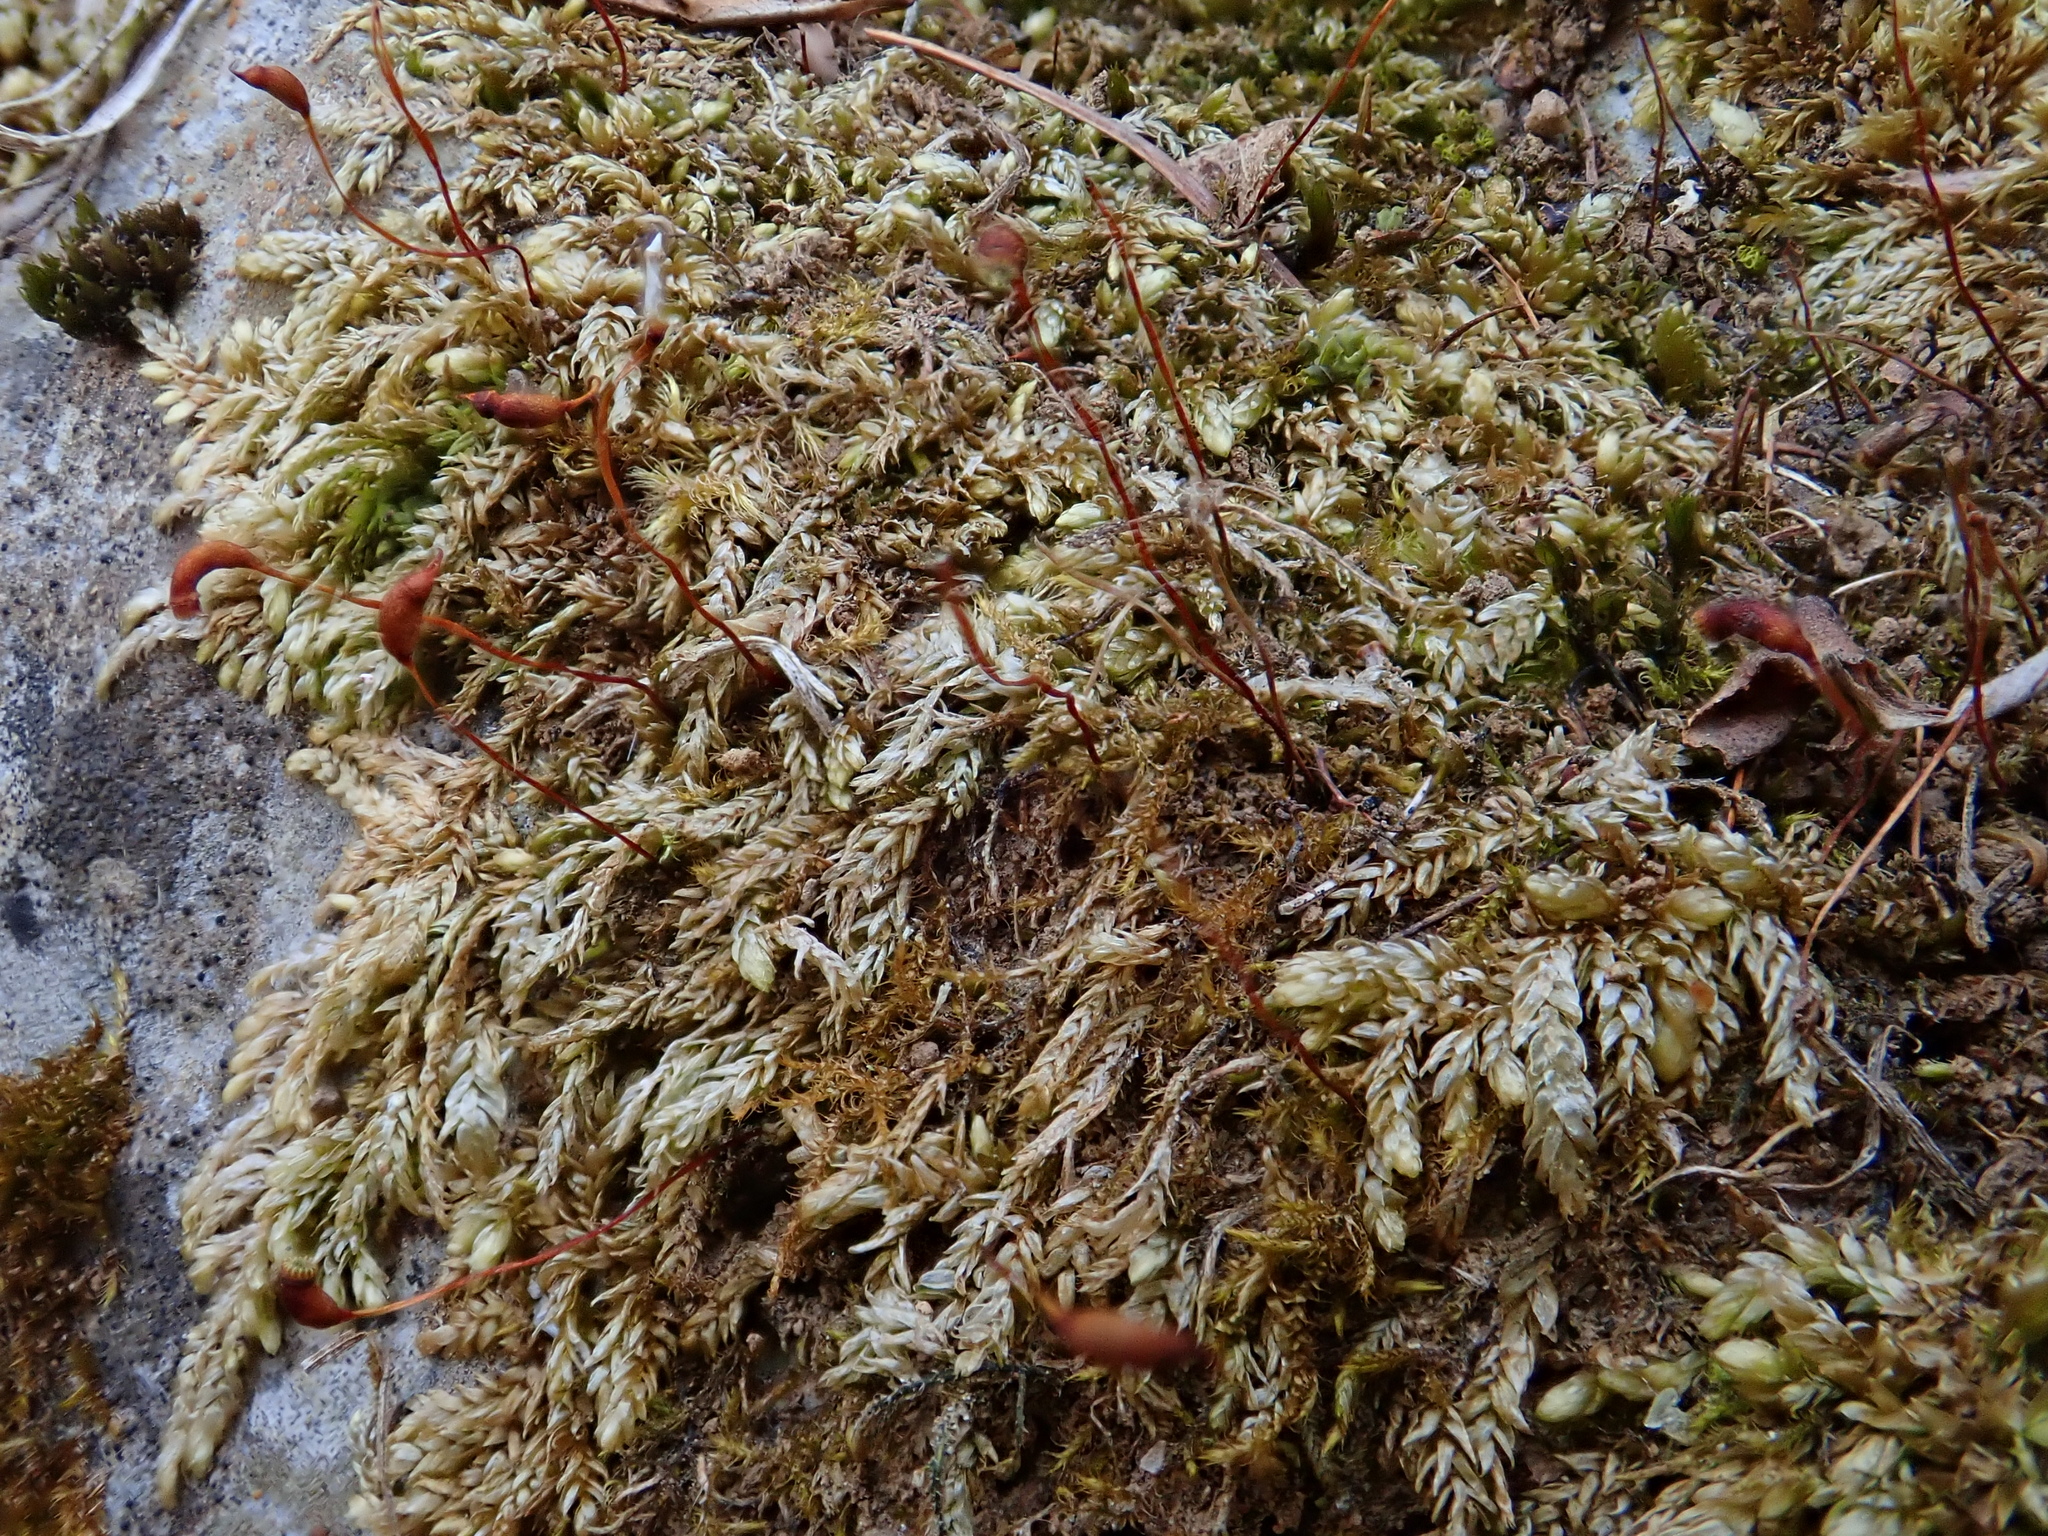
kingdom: Plantae
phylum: Bryophyta
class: Bryopsida
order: Hypnales
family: Brachytheciaceae
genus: Rhynchostegium
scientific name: Rhynchostegium murale
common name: Wall feather-moss
